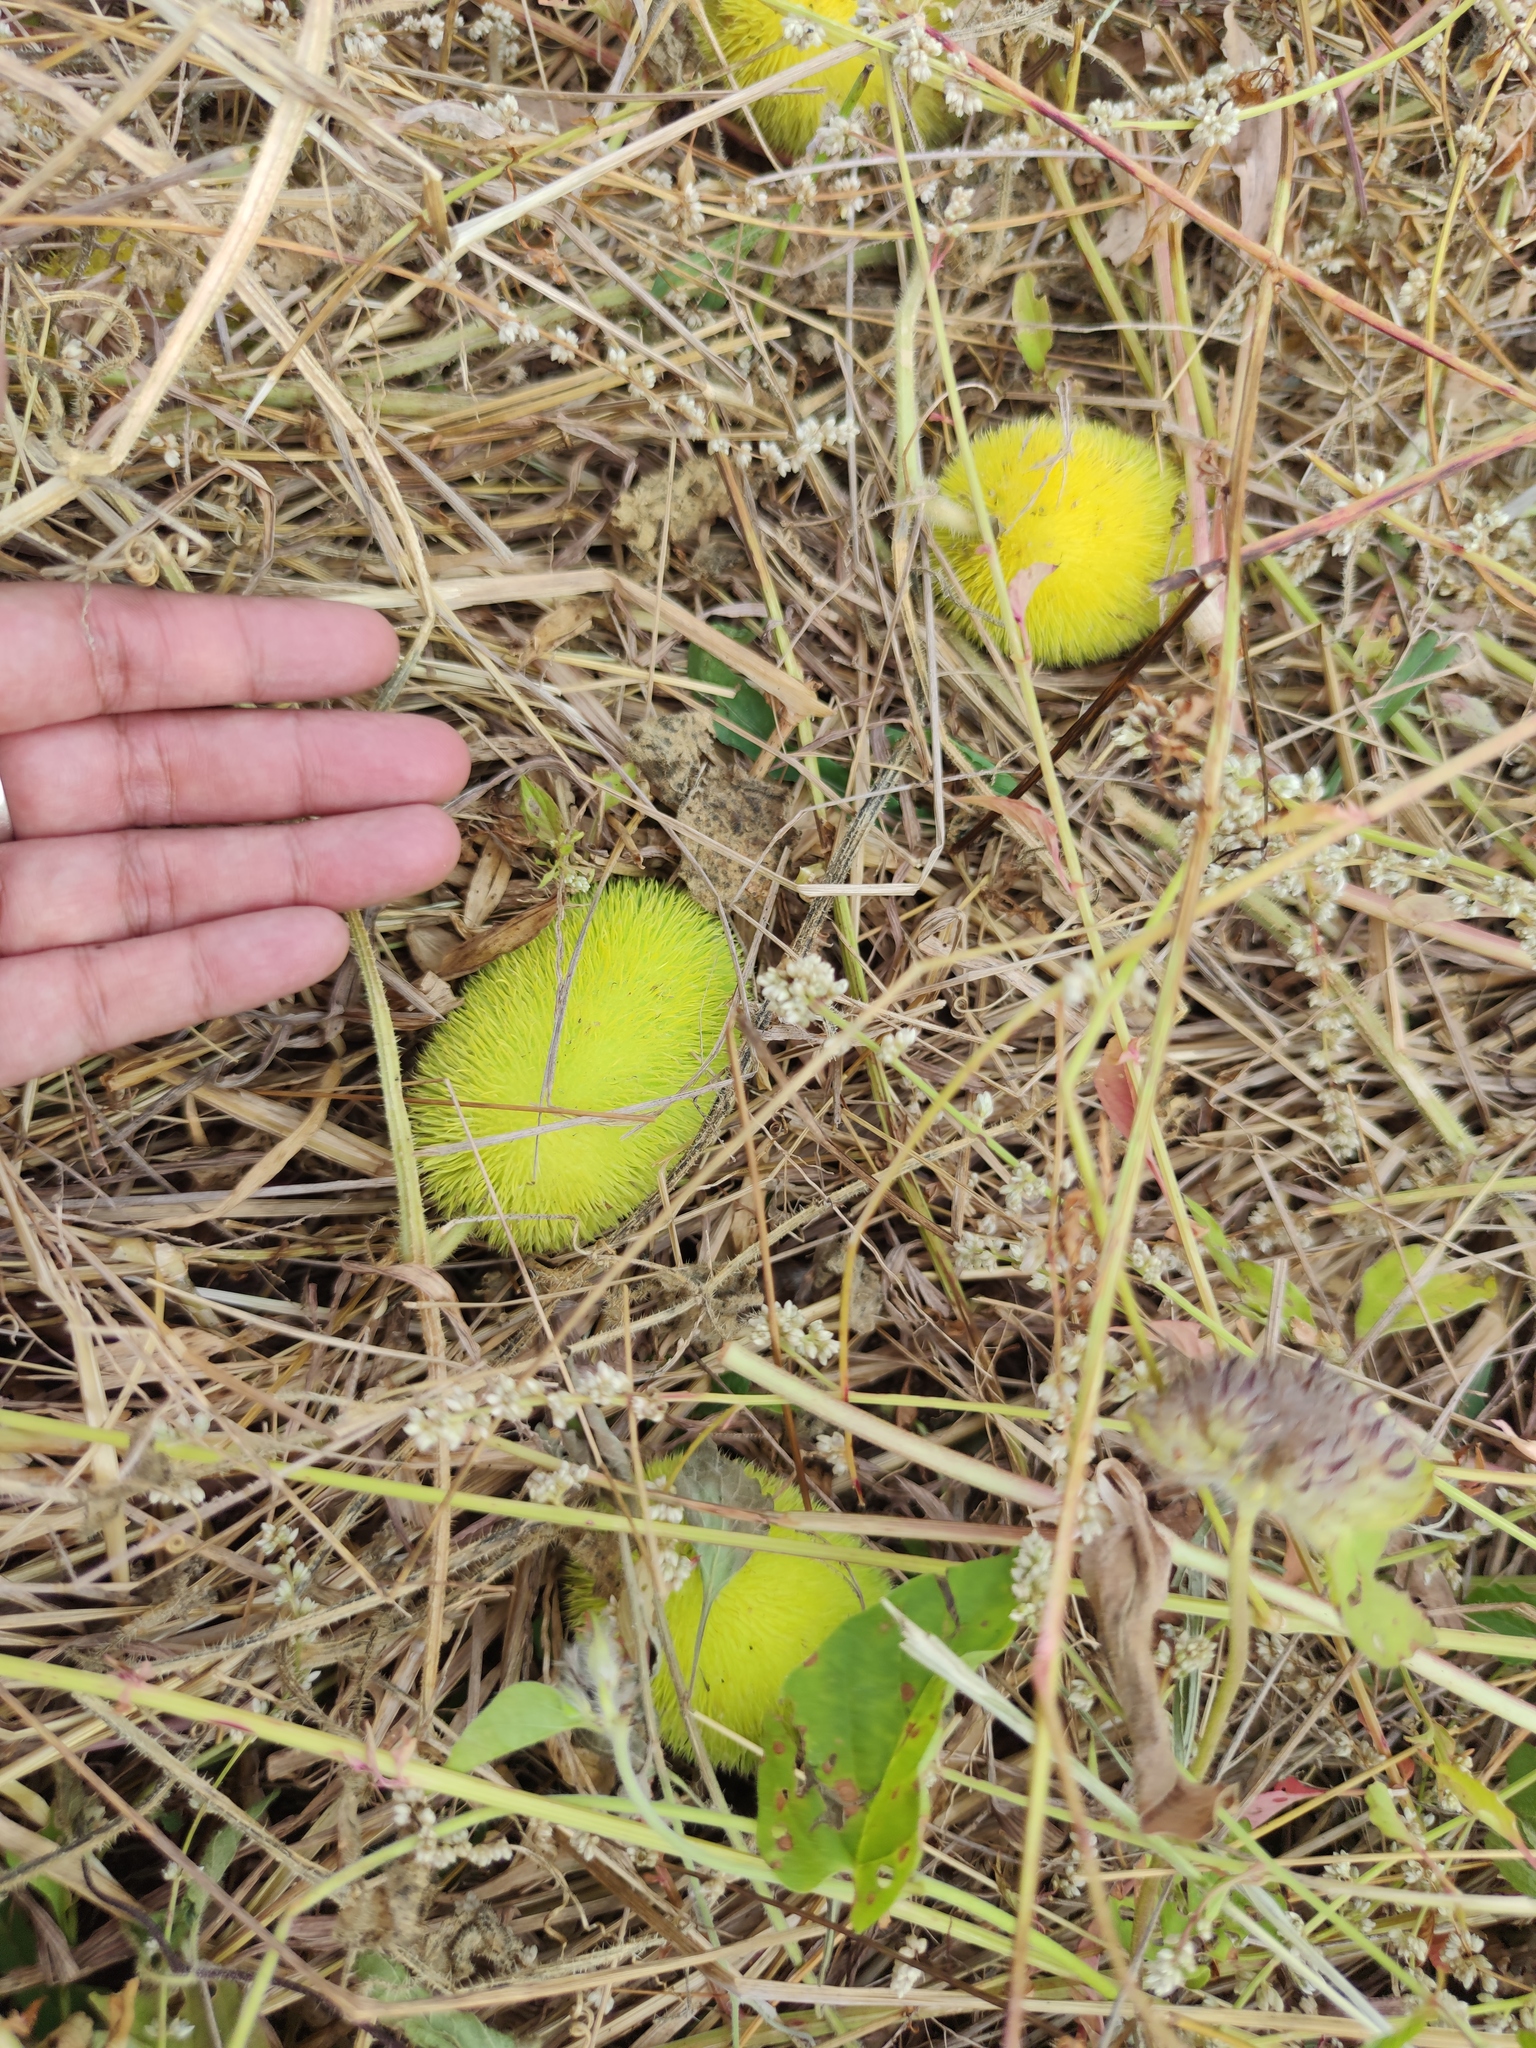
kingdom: Plantae
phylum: Tracheophyta
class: Magnoliopsida
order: Cucurbitales
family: Cucurbitaceae
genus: Cucumis
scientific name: Cucumis dipsaceus
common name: Hedgehog gourd
